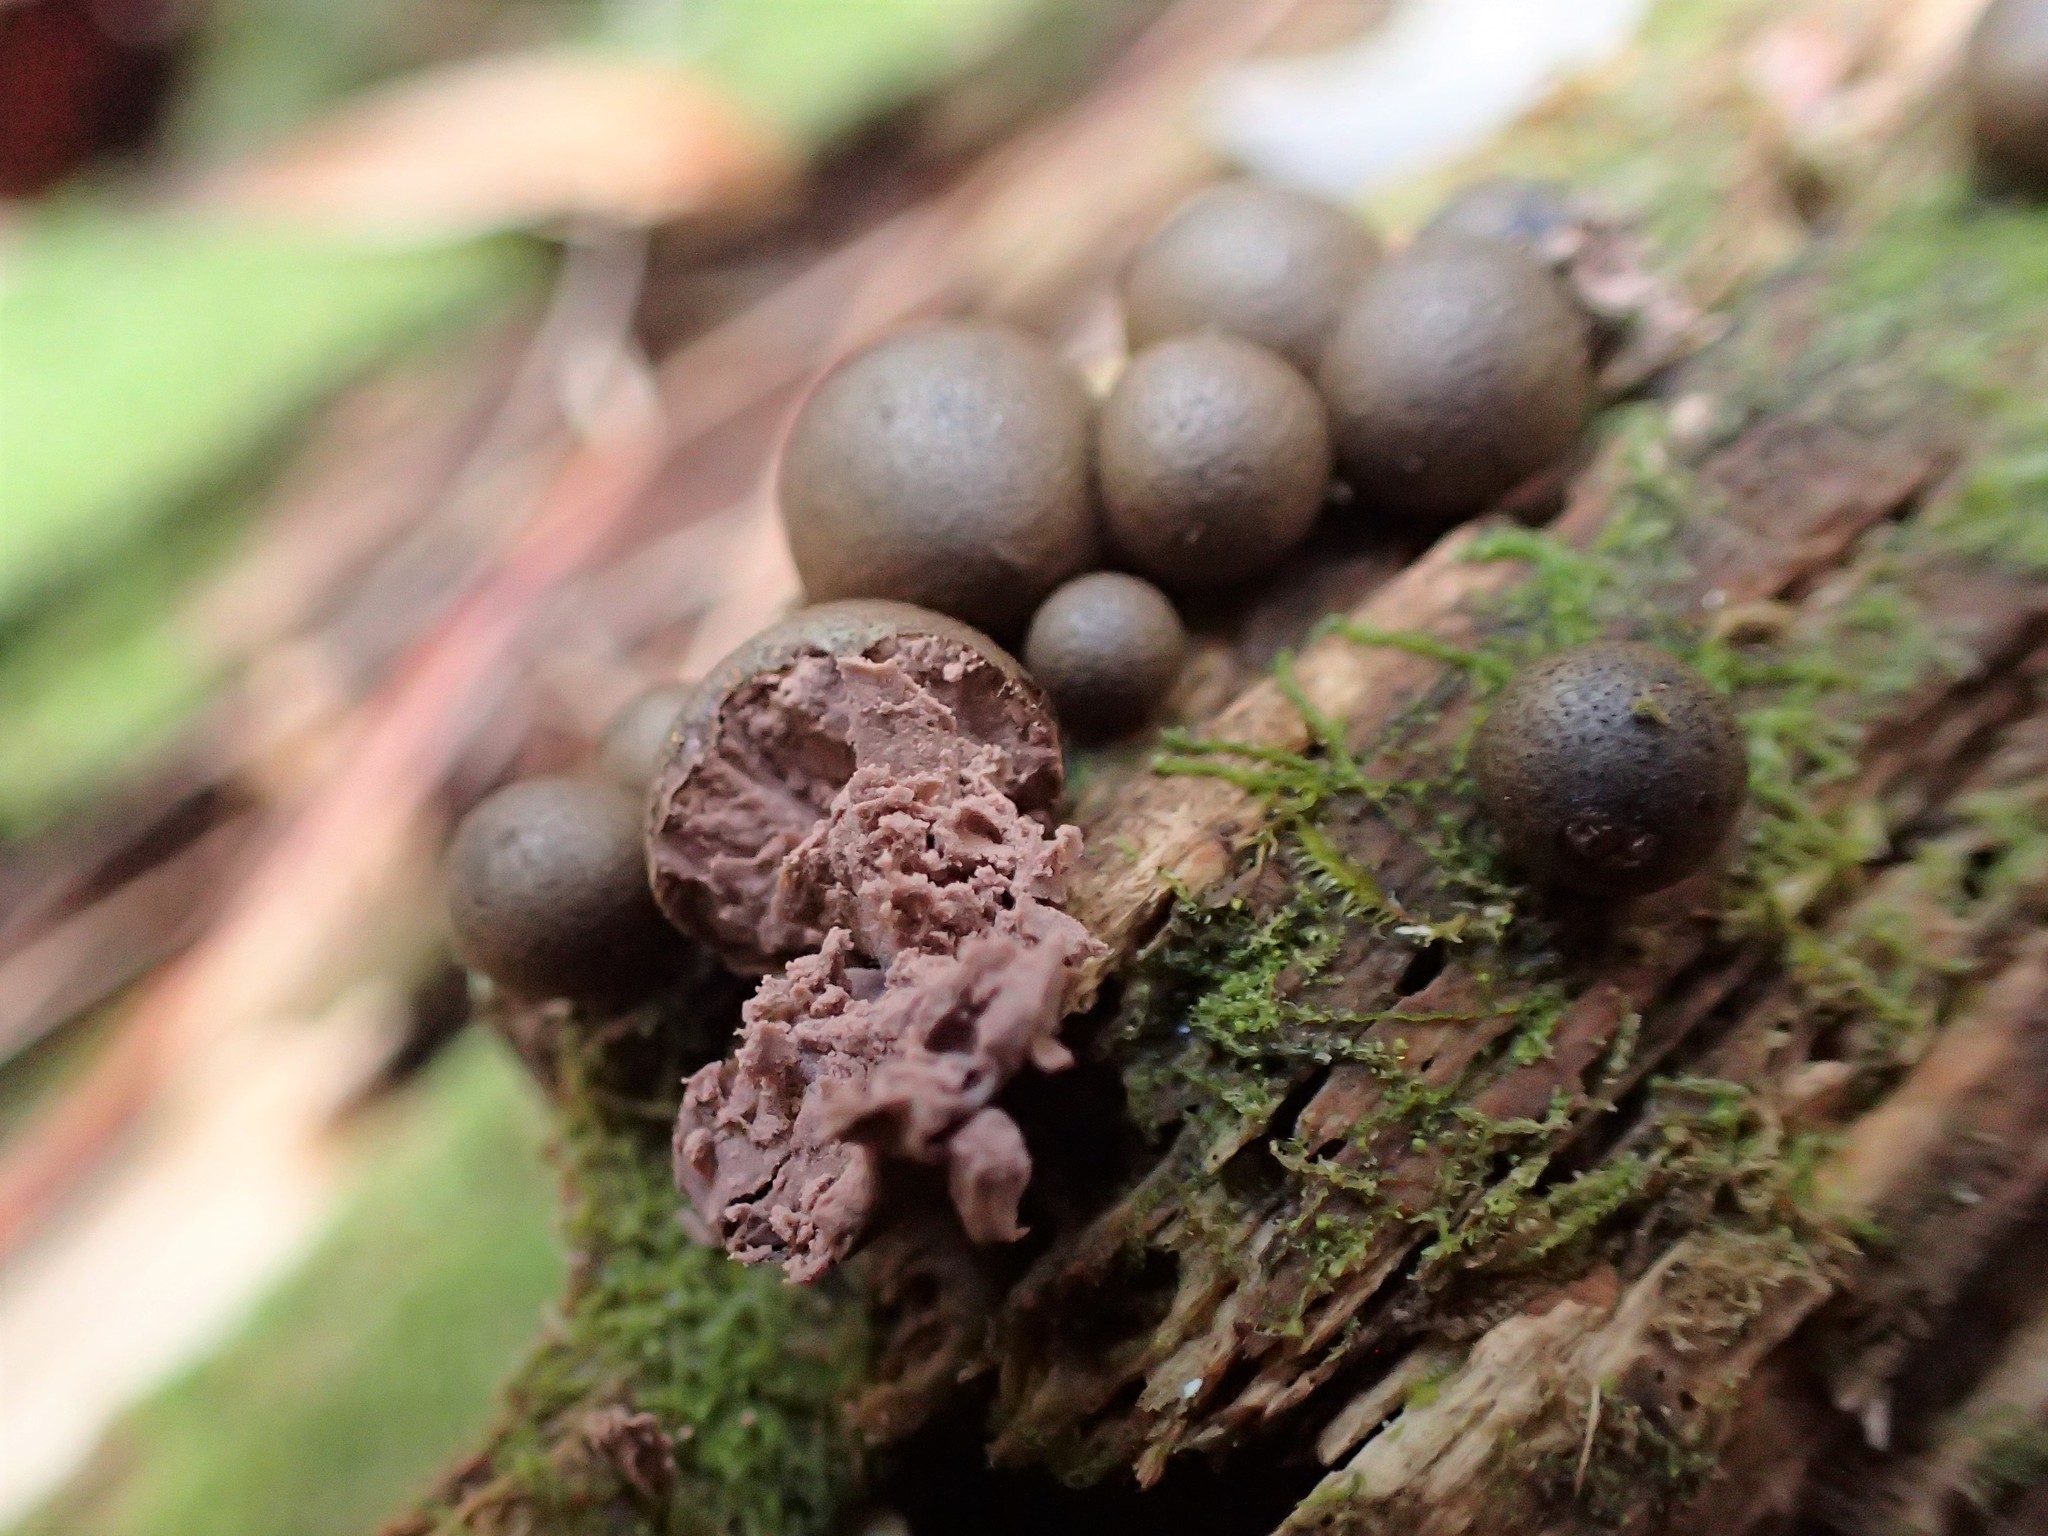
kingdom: Protozoa
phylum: Mycetozoa
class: Myxomycetes
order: Cribrariales
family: Tubiferaceae
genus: Lycogala
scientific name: Lycogala epidendrum
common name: Wolf's milk
